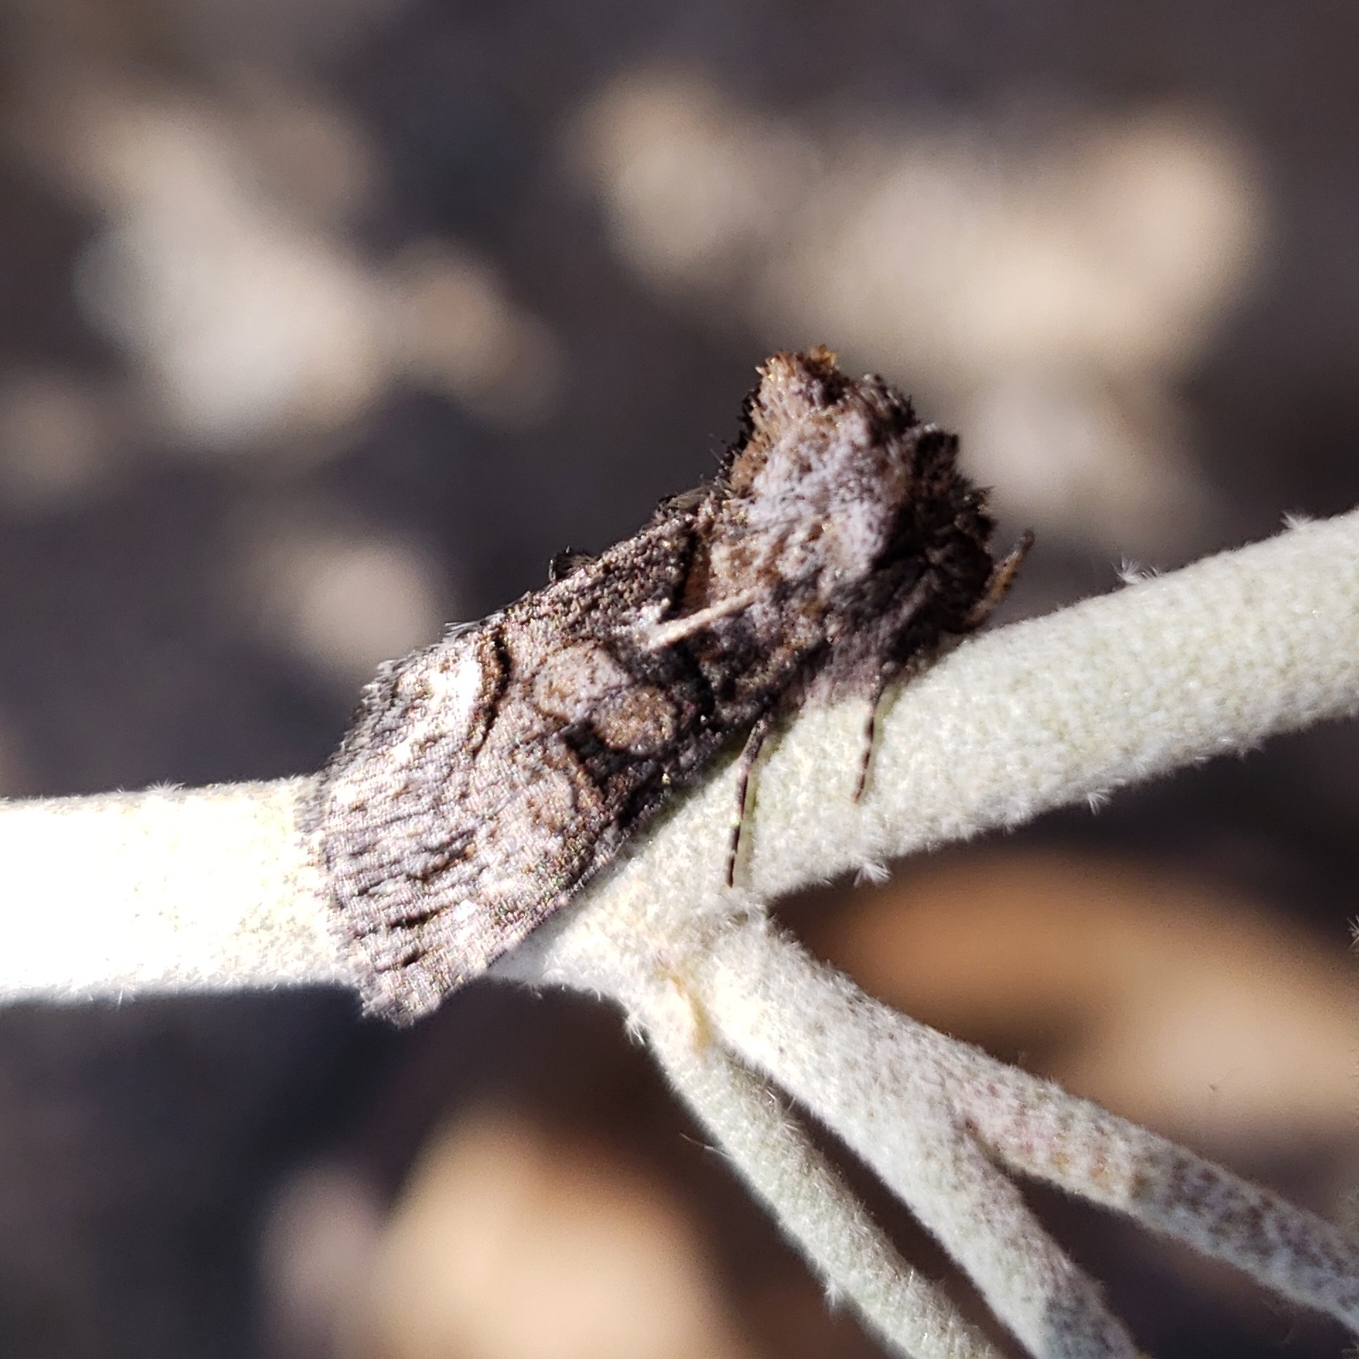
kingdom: Animalia
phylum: Arthropoda
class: Insecta
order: Lepidoptera
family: Noctuidae
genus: Abrostola
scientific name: Abrostola parvula
